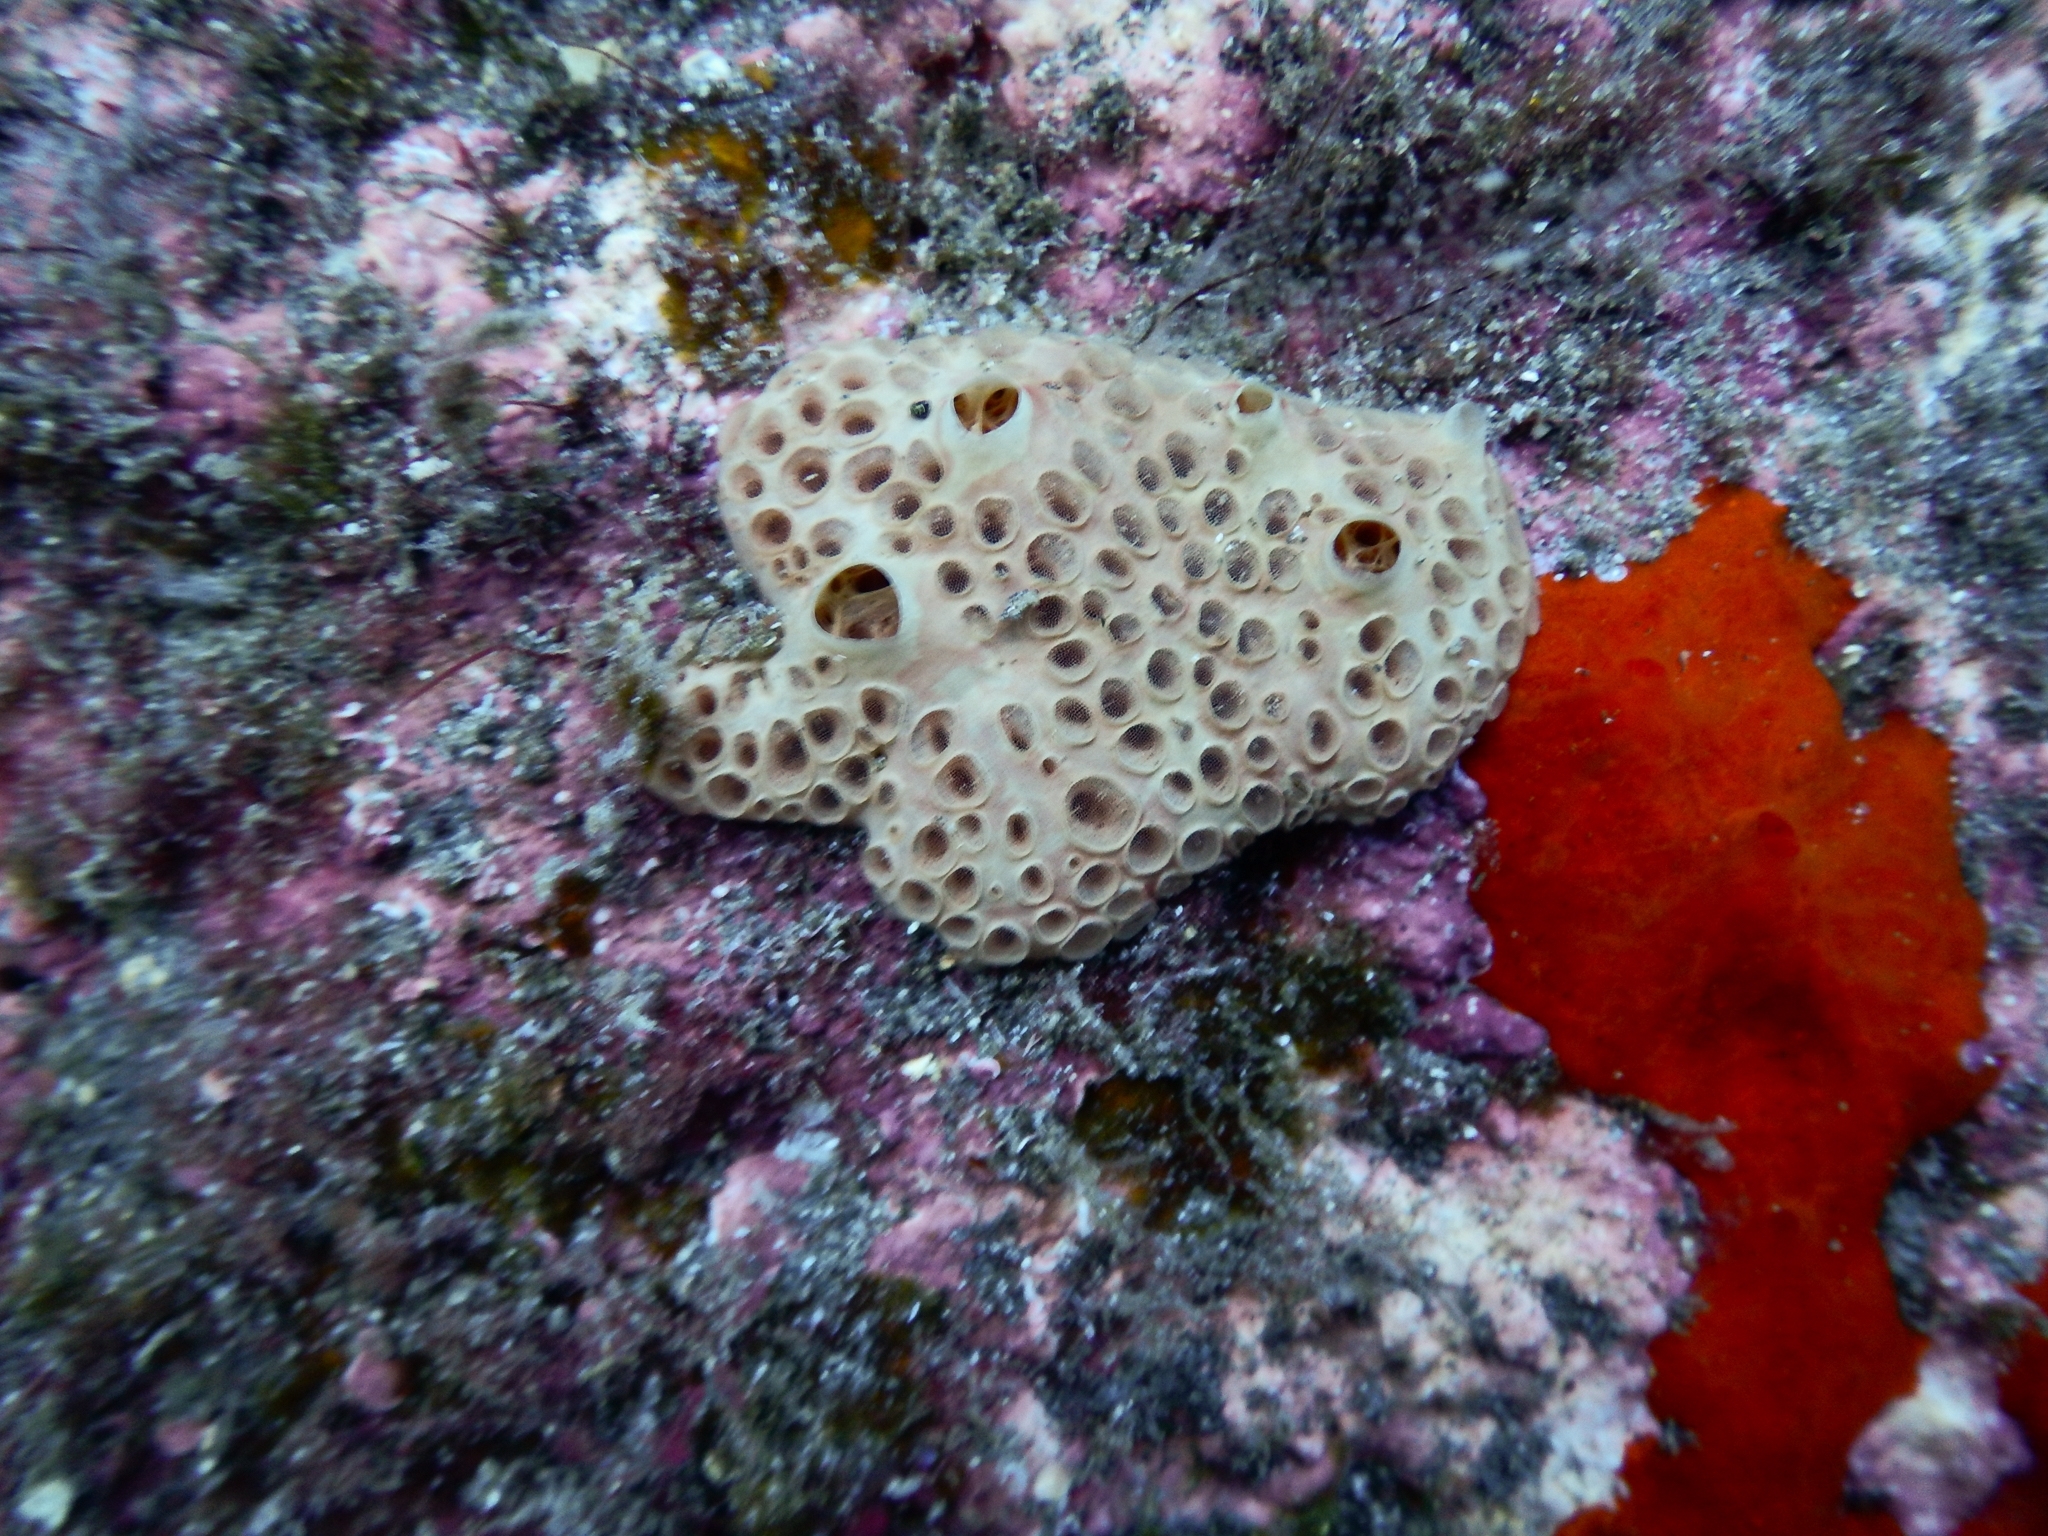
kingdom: Animalia
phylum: Porifera
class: Demospongiae
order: Poecilosclerida
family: Hymedesmiidae
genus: Hemimycale
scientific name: Hemimycale columella
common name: Crater sponge
